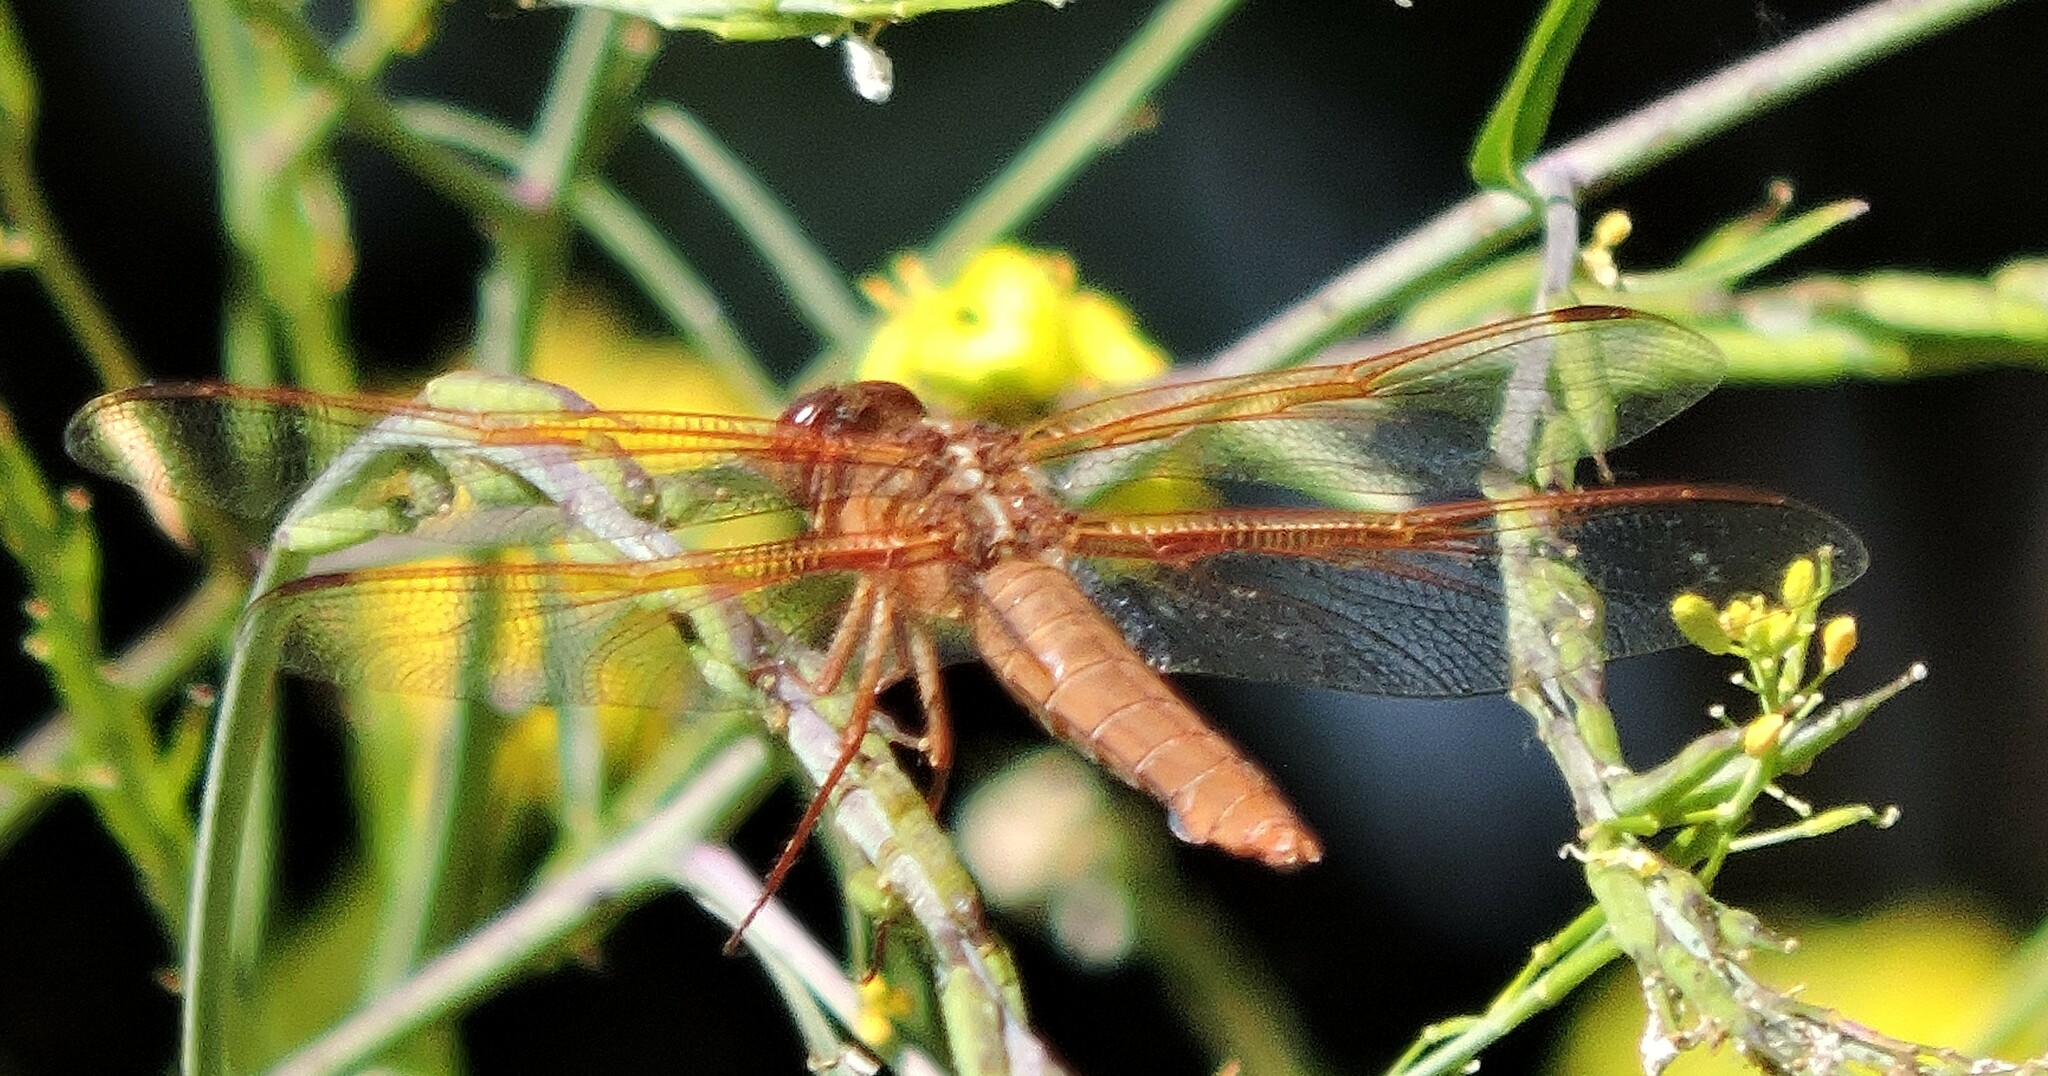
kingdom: Animalia
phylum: Arthropoda
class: Insecta
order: Odonata
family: Libellulidae
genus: Libellula
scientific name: Libellula saturata
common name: Flame skimmer
